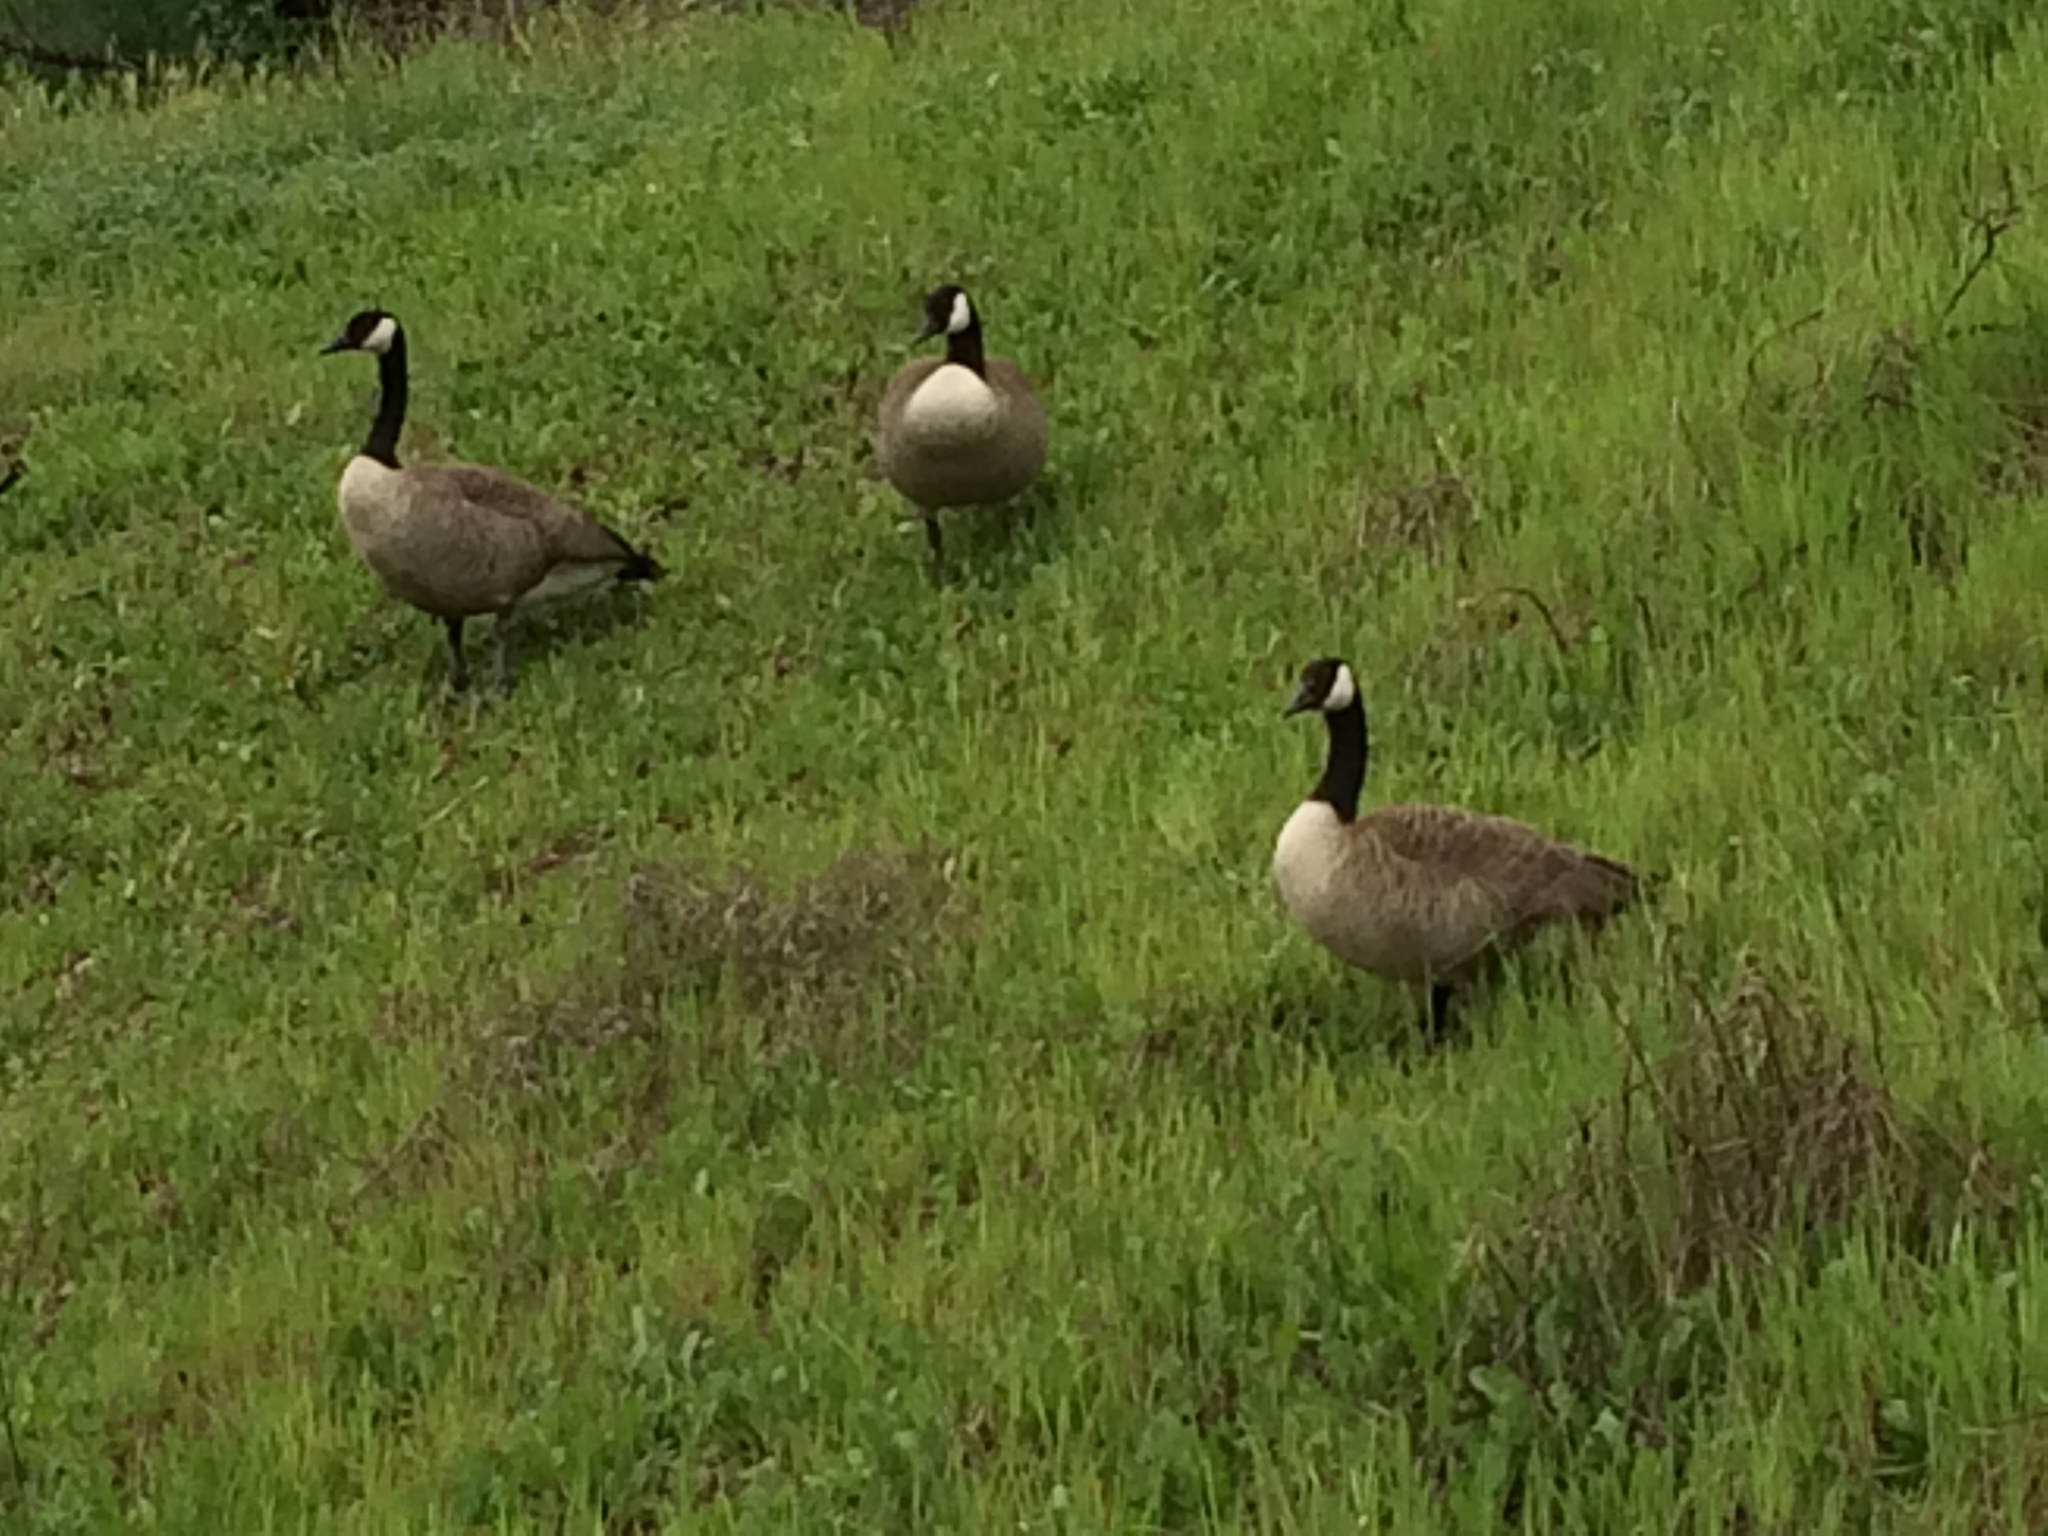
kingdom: Animalia
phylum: Chordata
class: Aves
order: Anseriformes
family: Anatidae
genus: Branta
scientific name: Branta canadensis
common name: Canada goose
